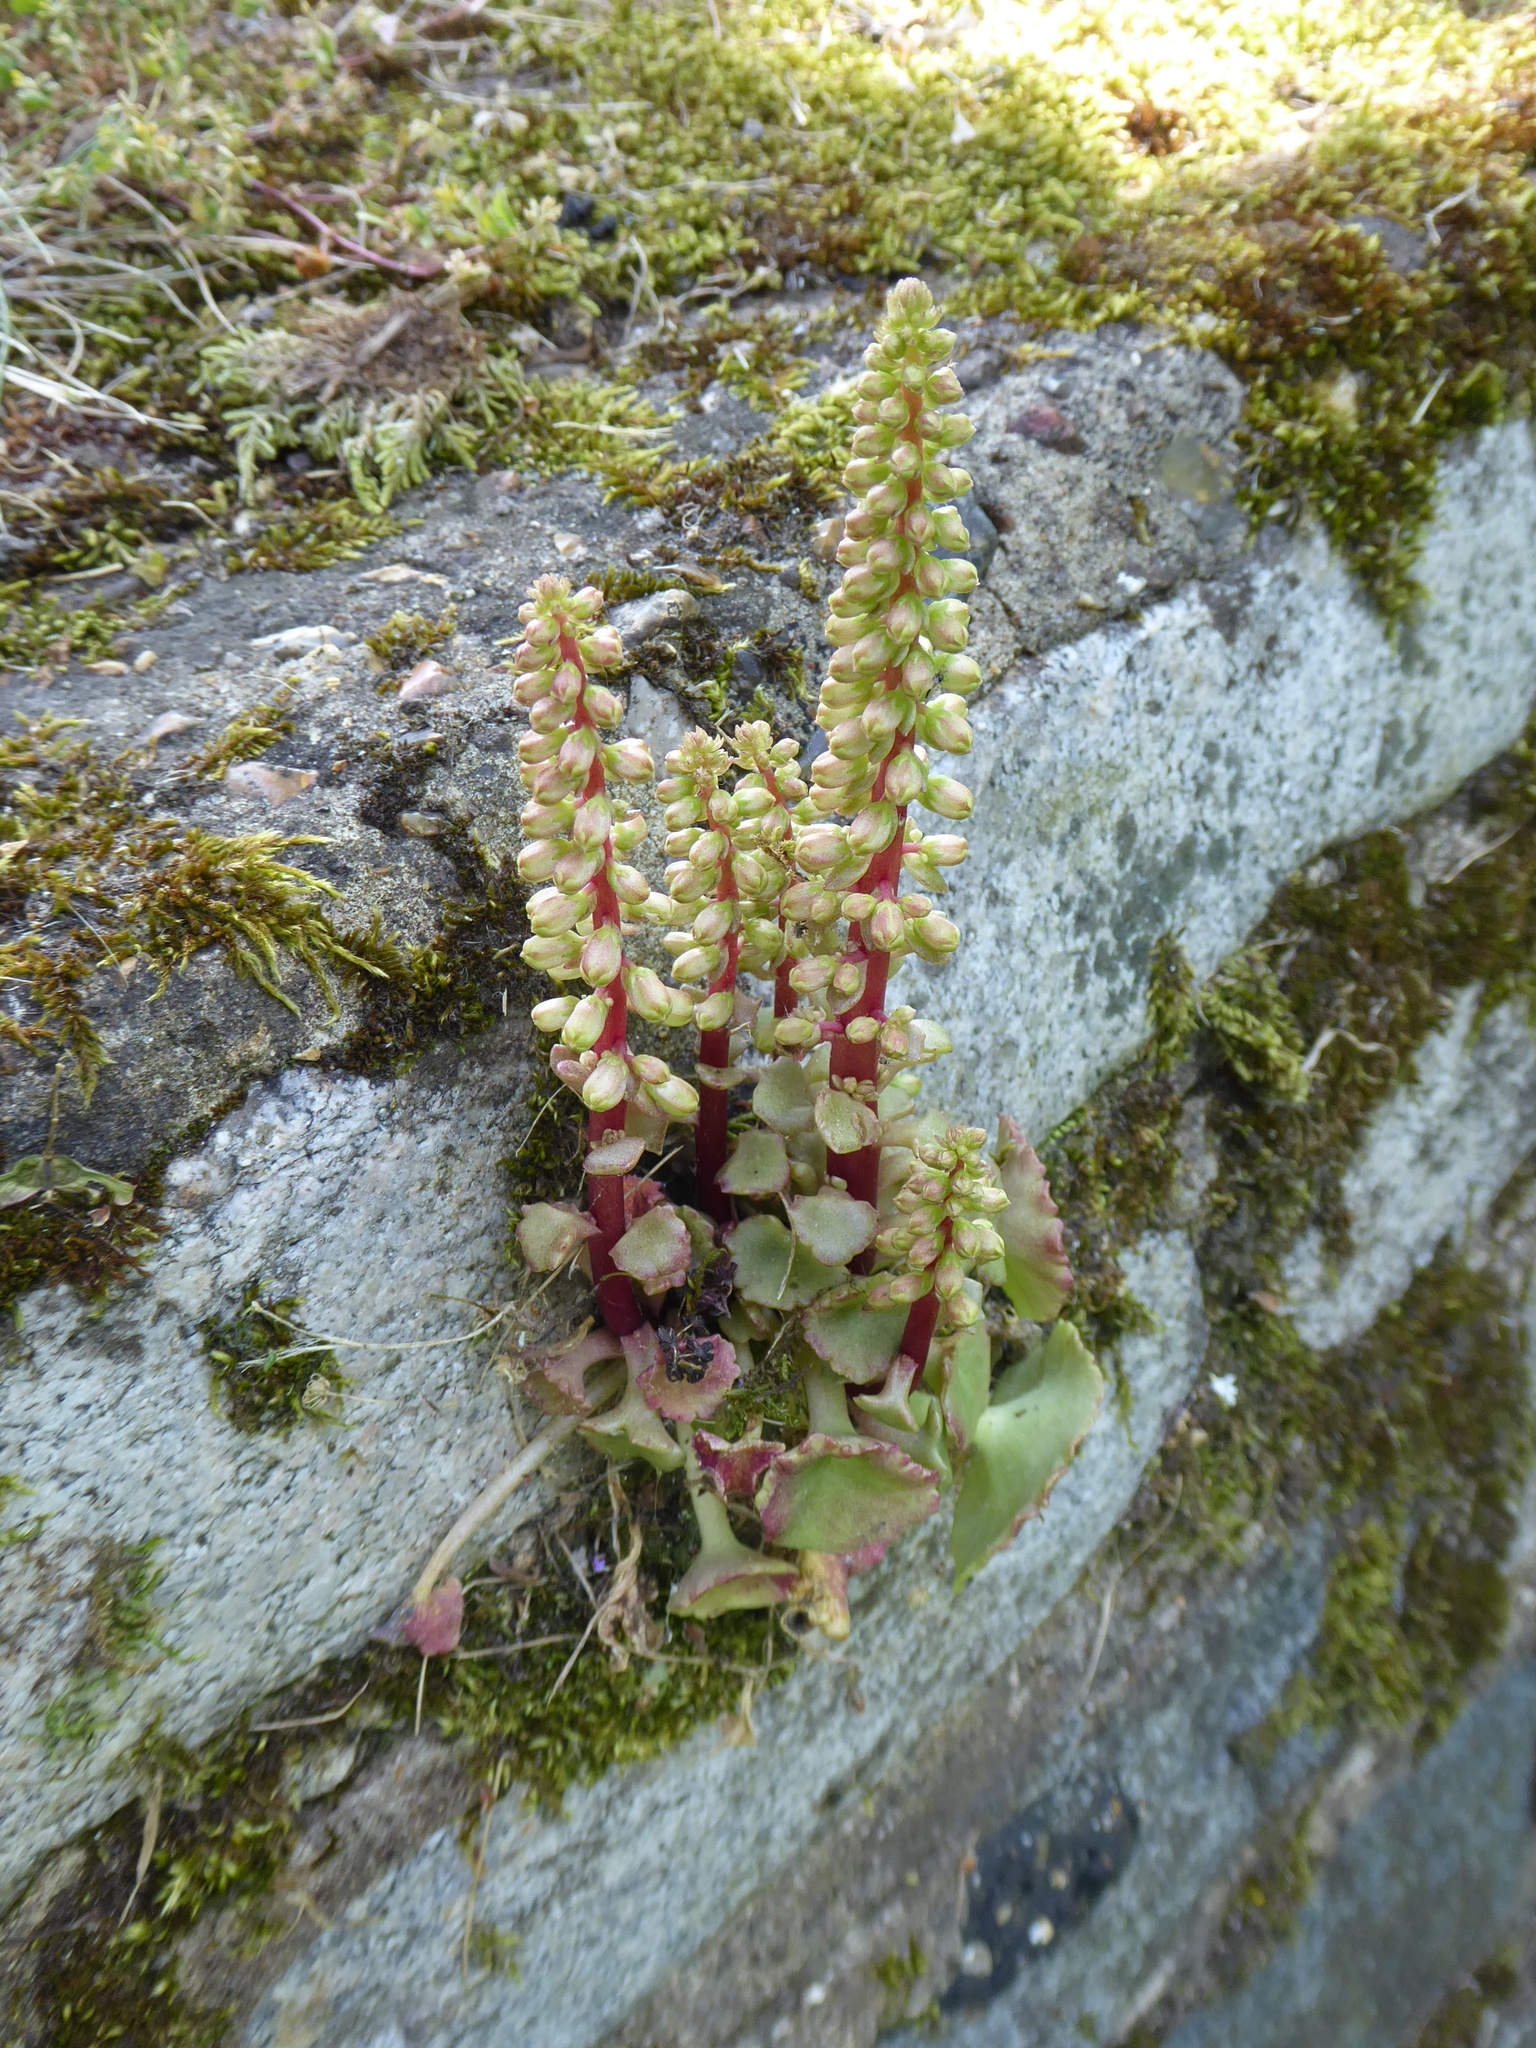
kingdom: Plantae
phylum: Tracheophyta
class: Magnoliopsida
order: Saxifragales
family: Crassulaceae
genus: Umbilicus
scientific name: Umbilicus rupestris
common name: Navelwort
